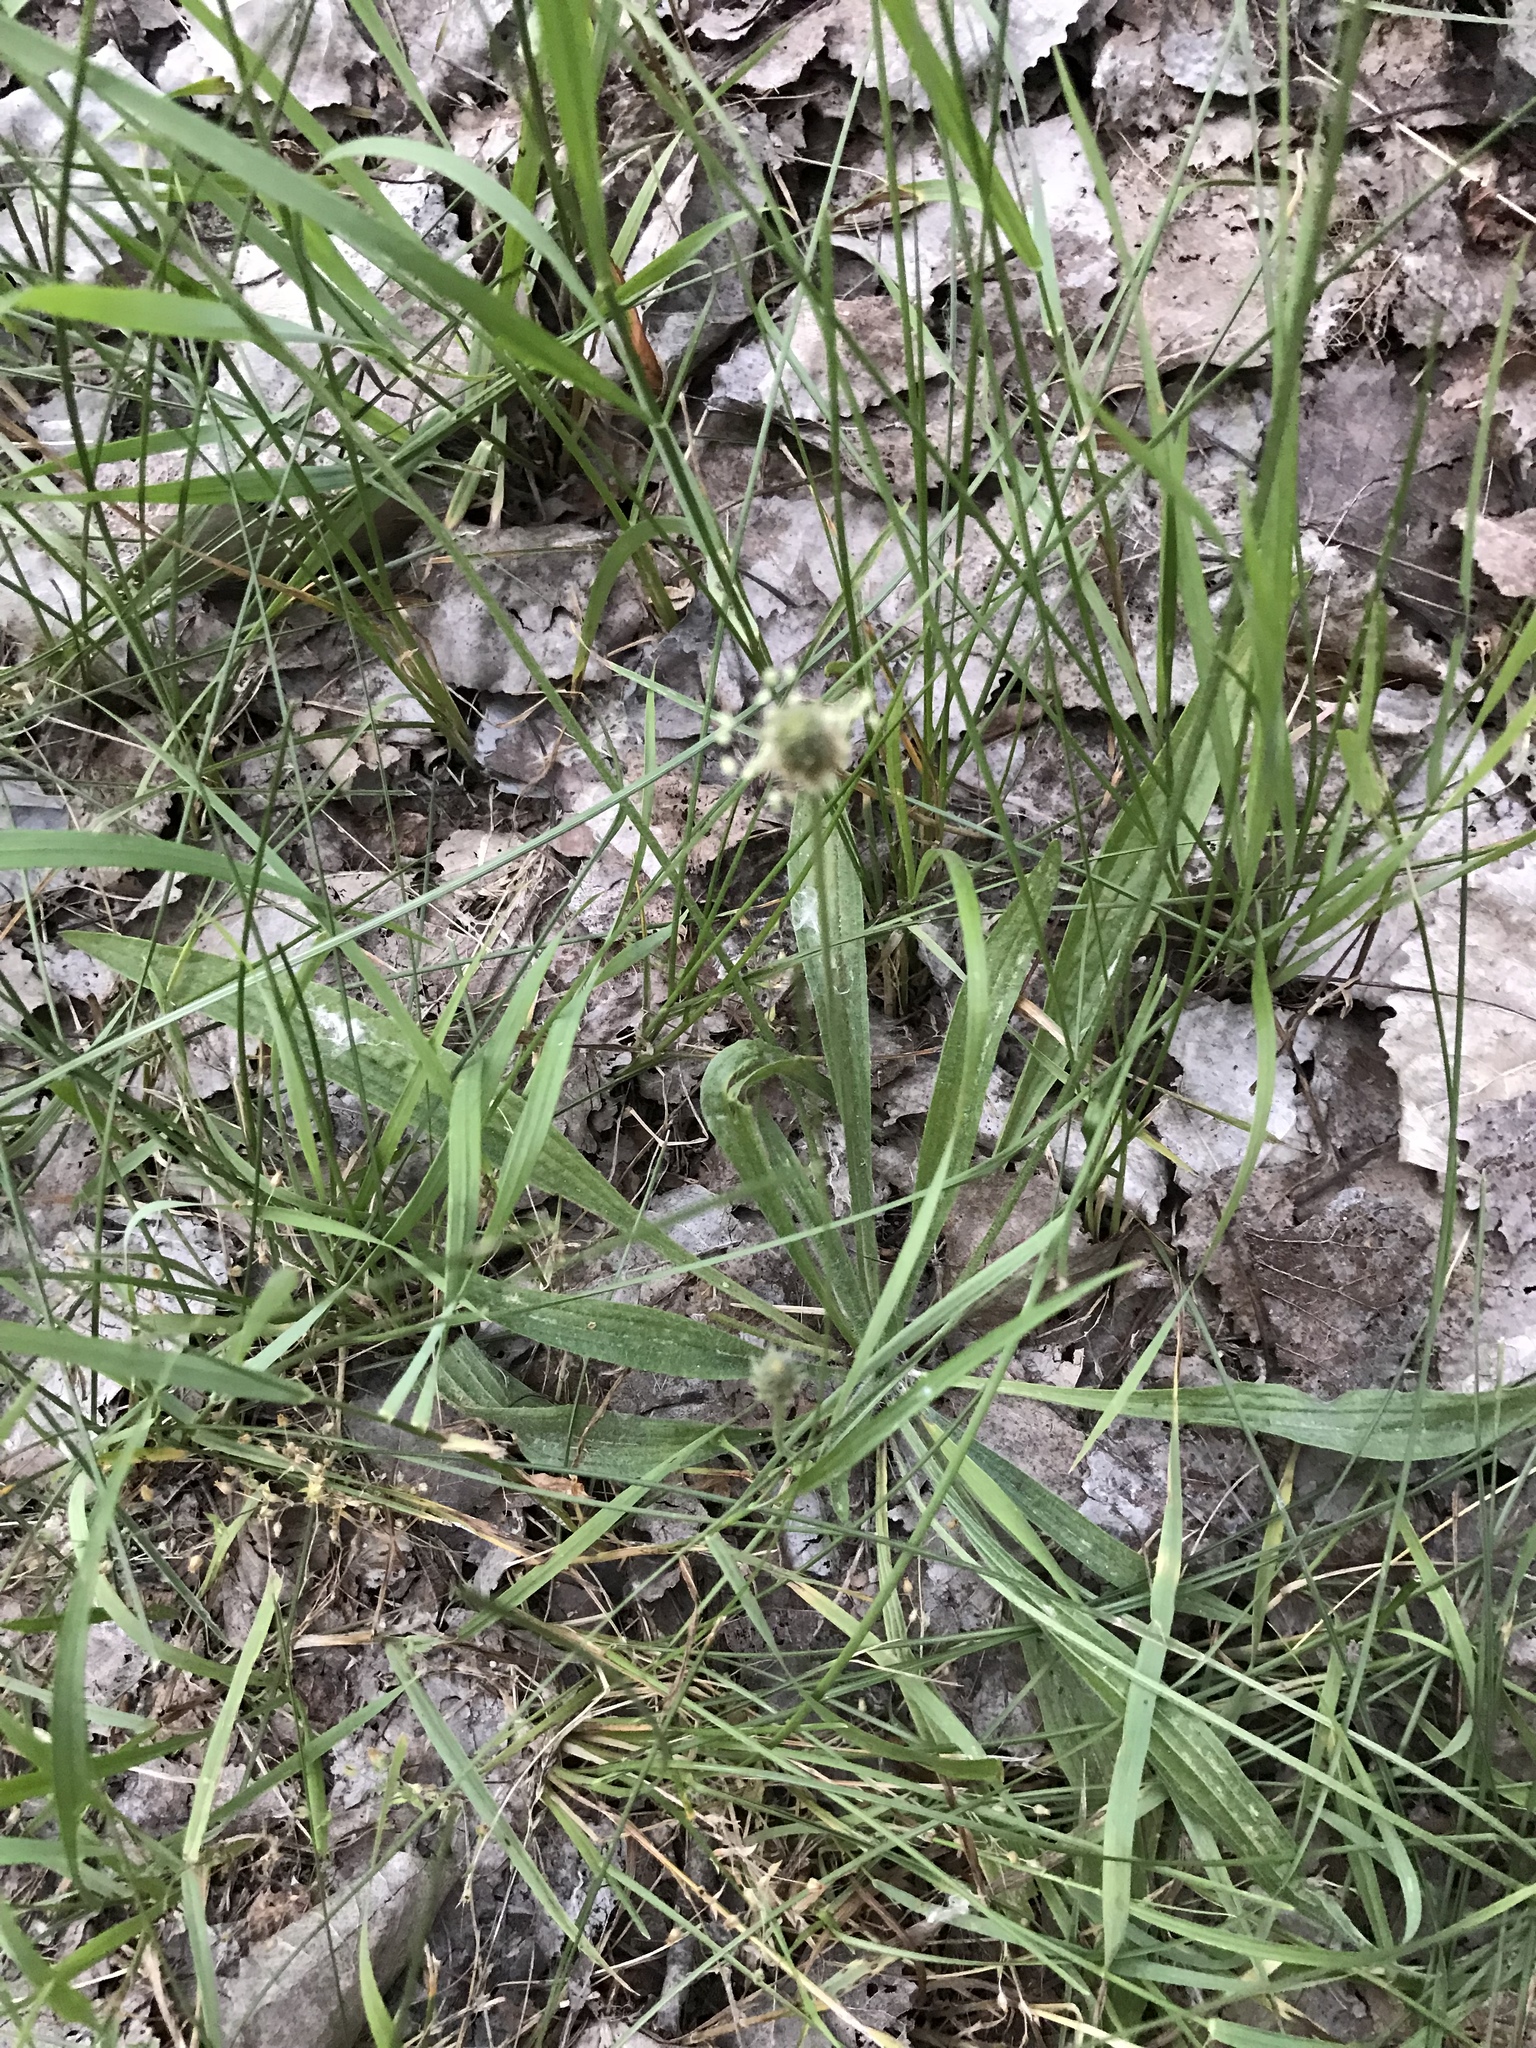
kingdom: Plantae
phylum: Tracheophyta
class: Magnoliopsida
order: Lamiales
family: Plantaginaceae
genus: Plantago
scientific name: Plantago lanceolata
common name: Ribwort plantain
